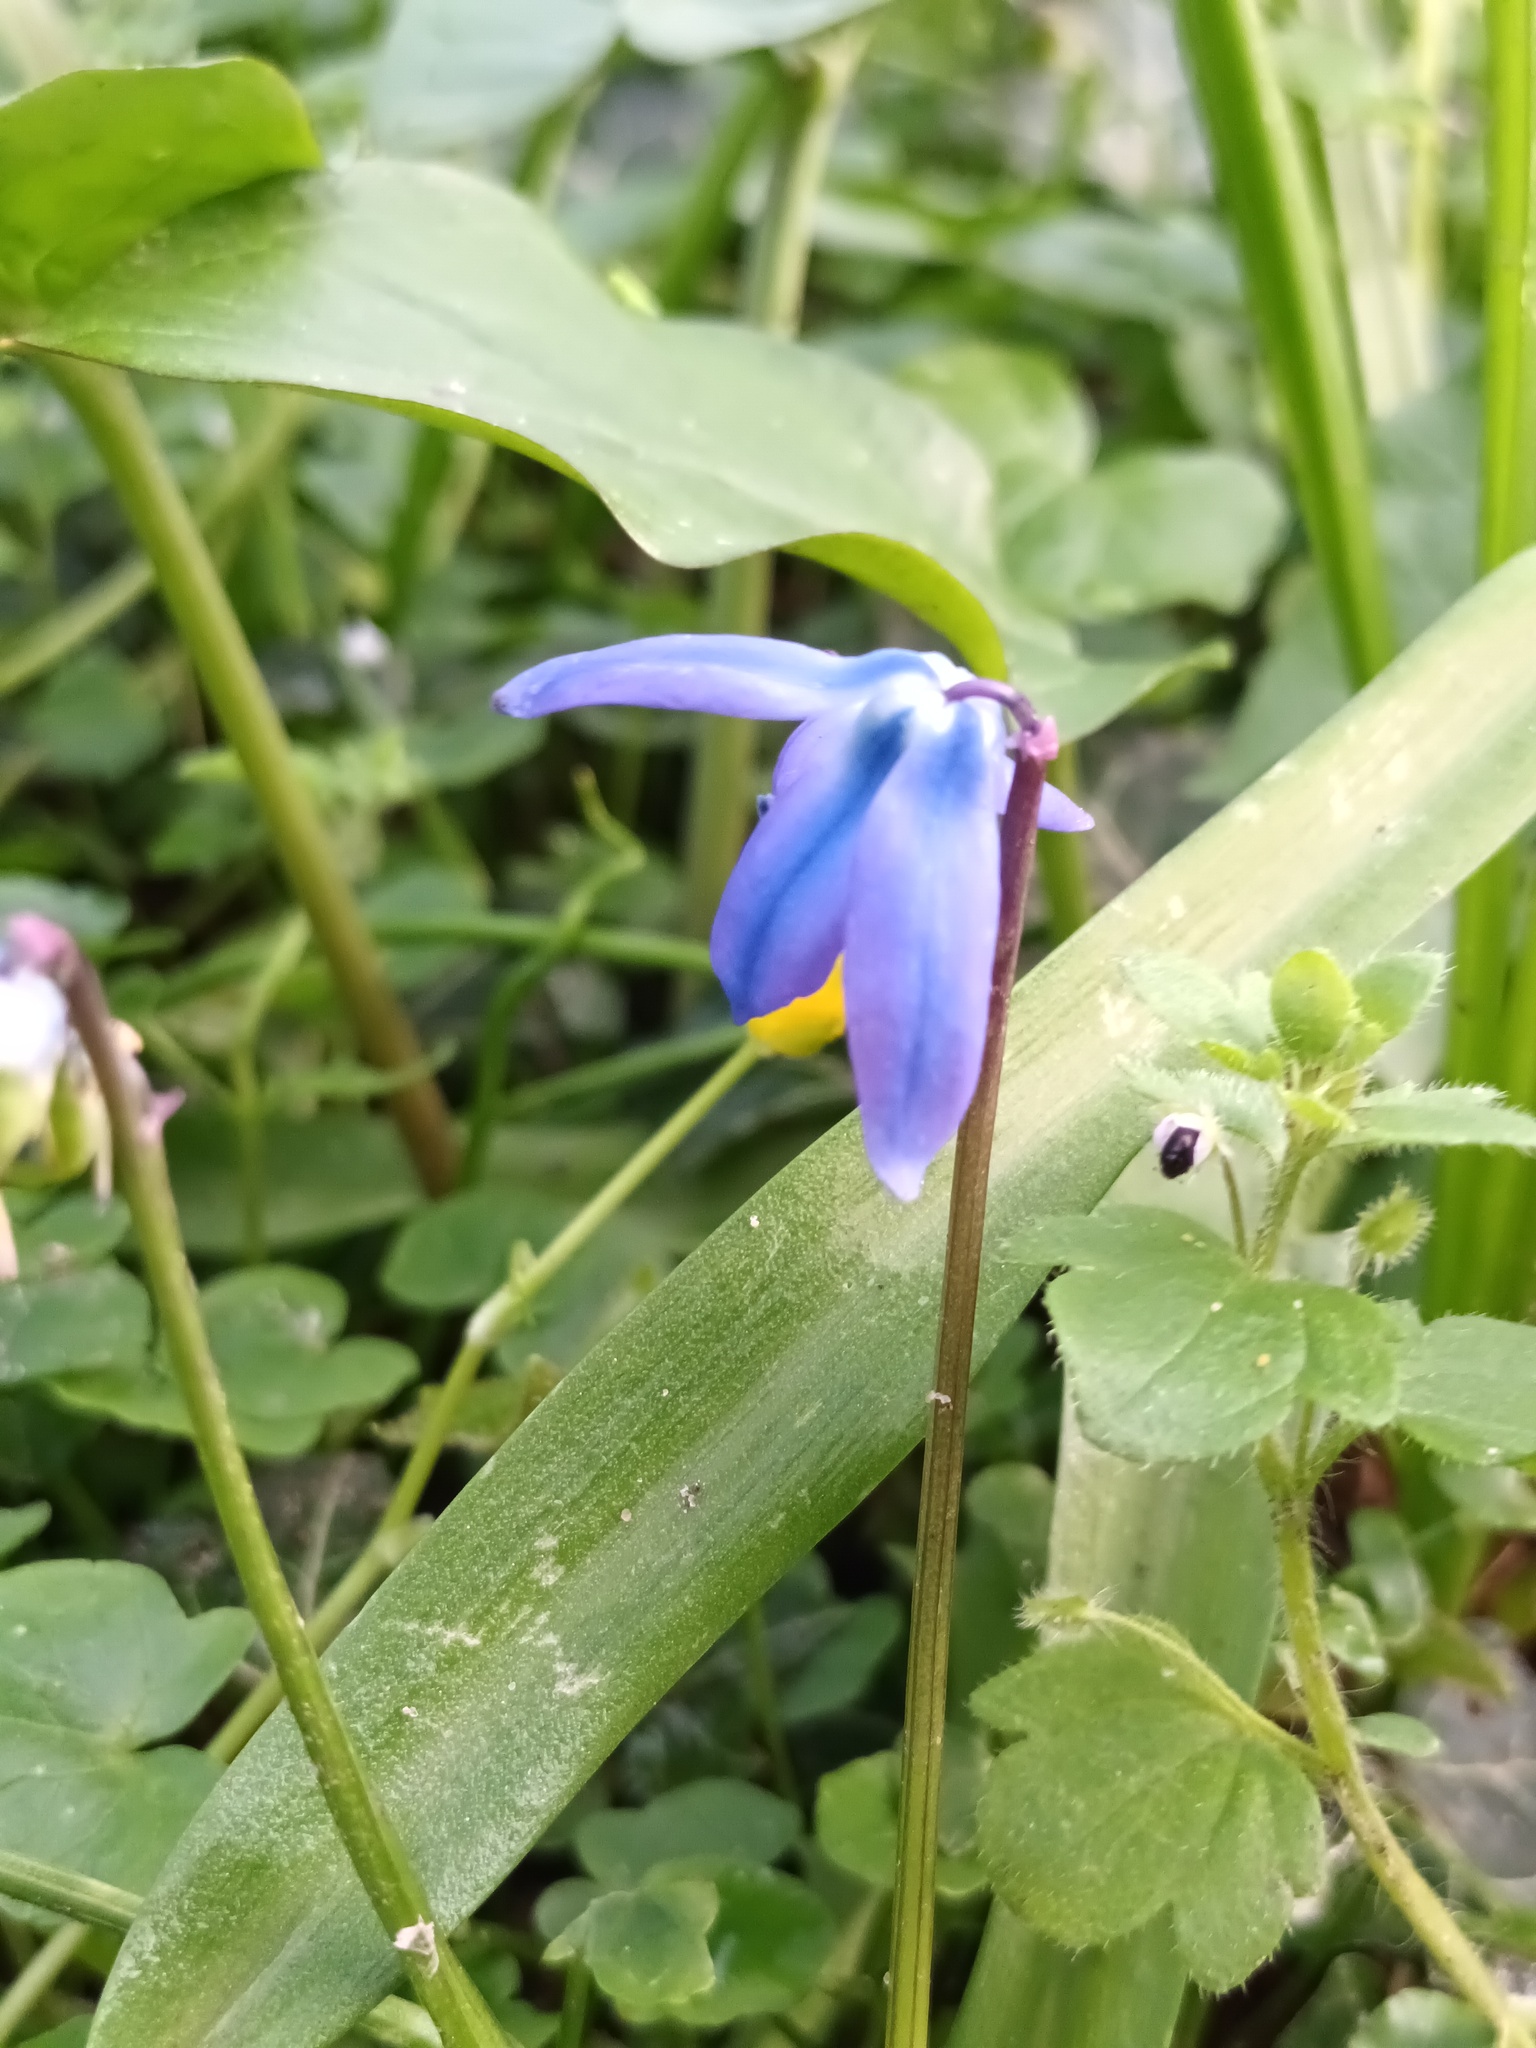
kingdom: Plantae
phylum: Tracheophyta
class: Liliopsida
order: Asparagales
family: Asparagaceae
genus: Scilla
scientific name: Scilla siberica
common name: Siberian squill
